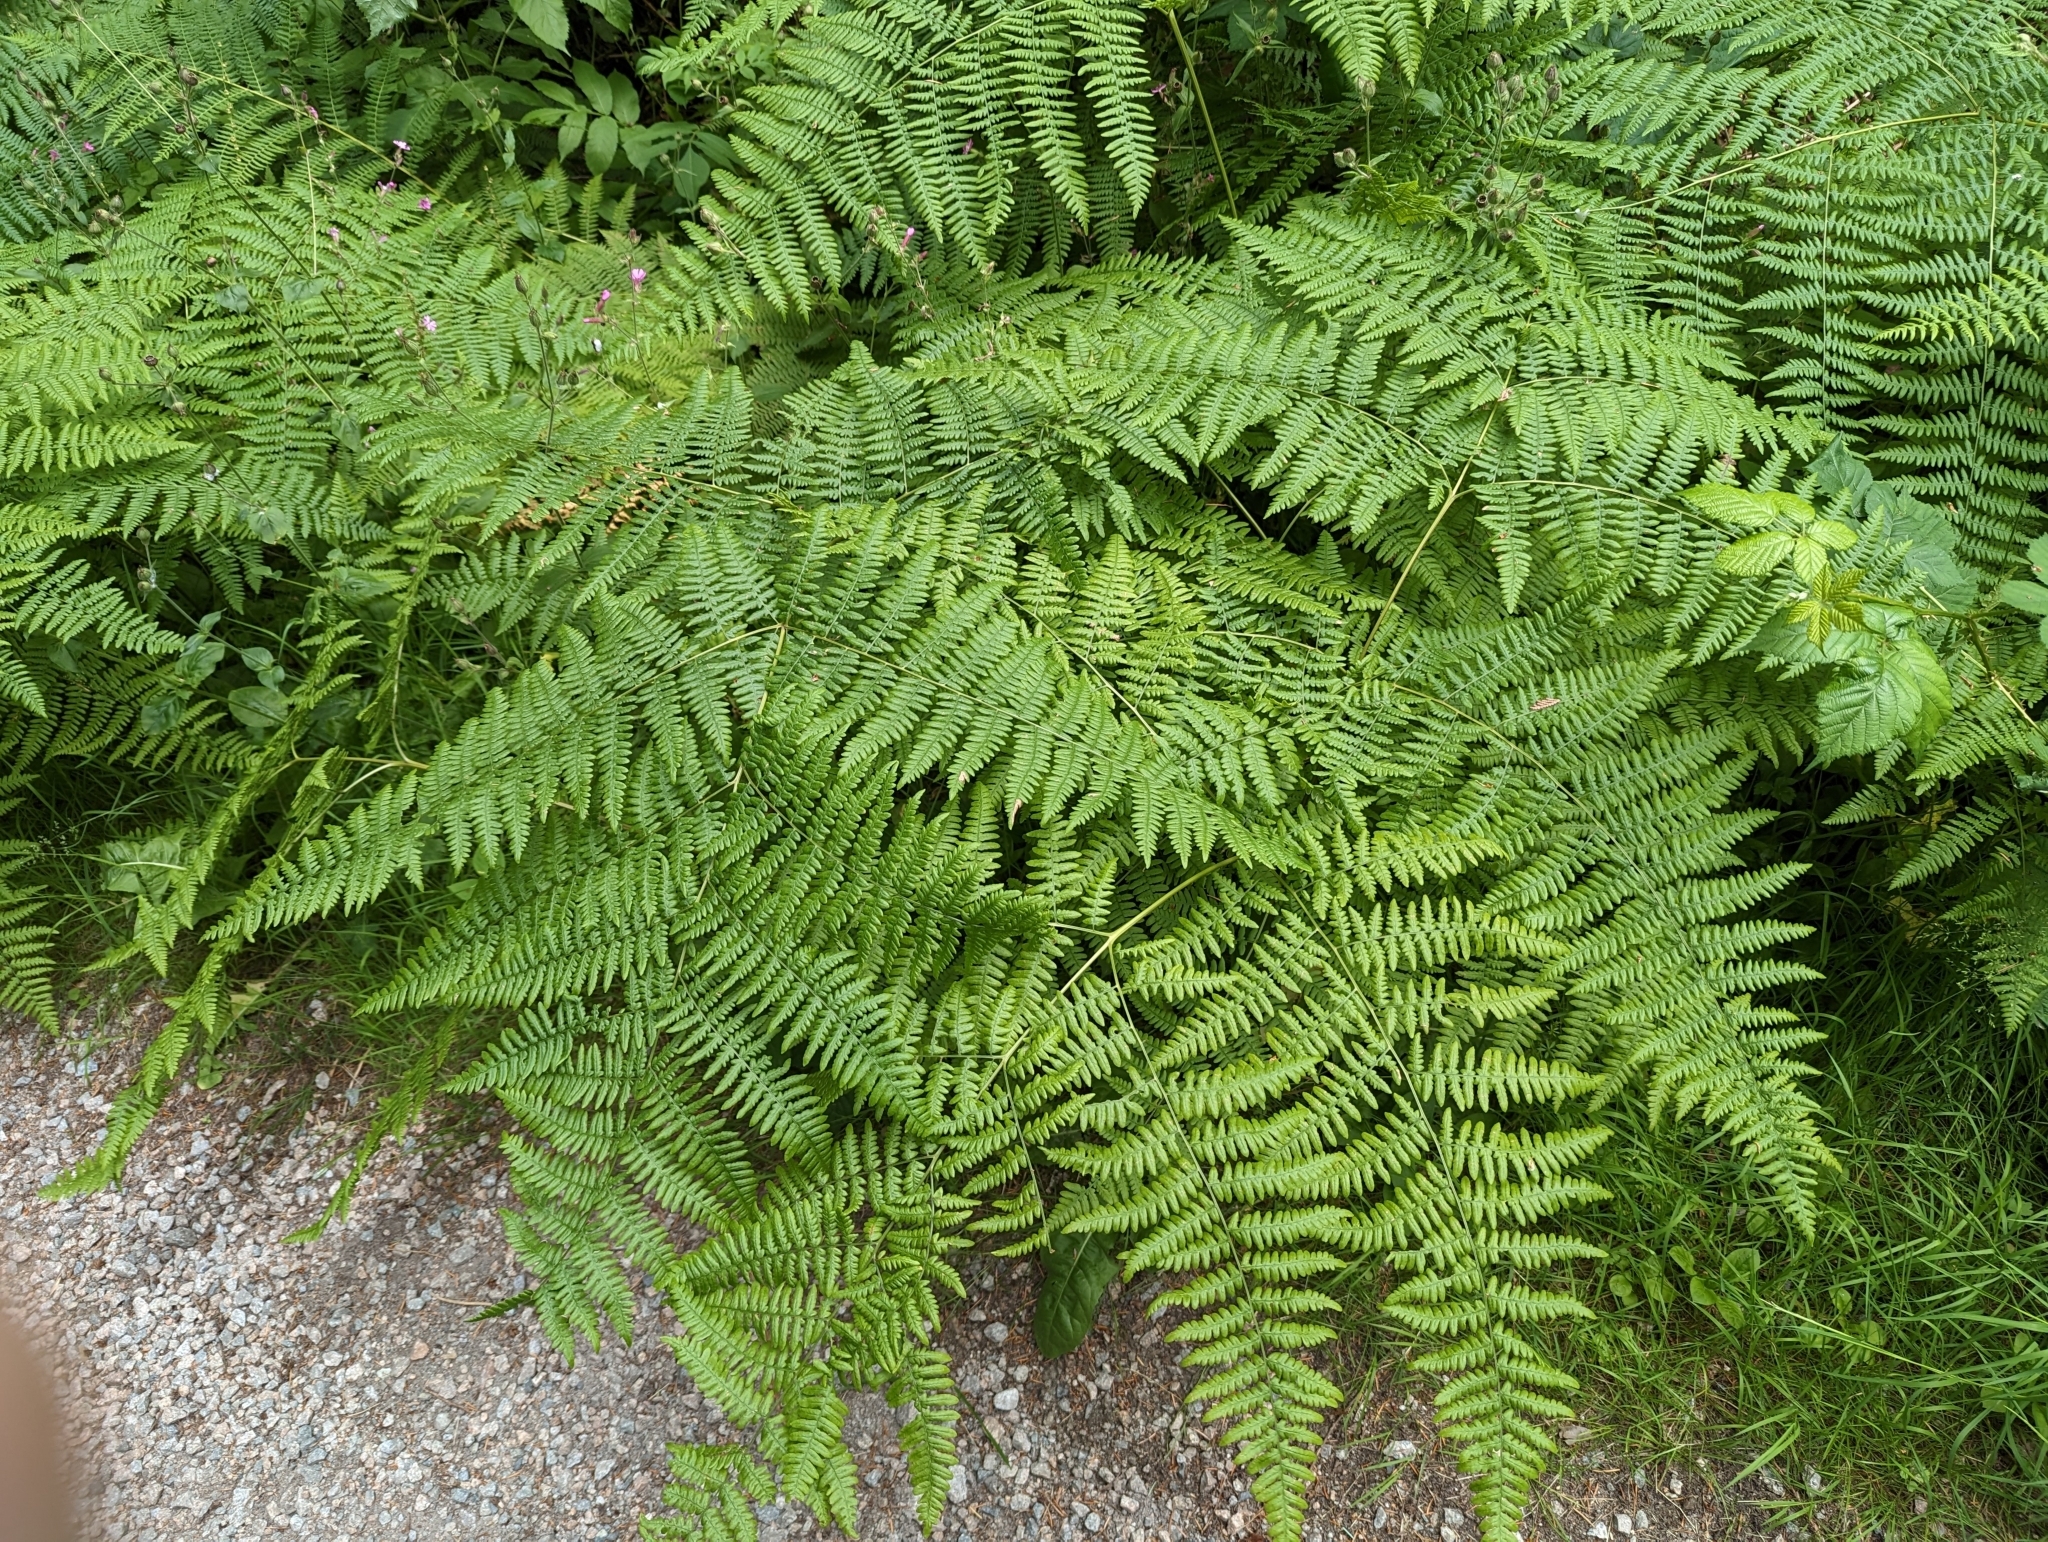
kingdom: Plantae
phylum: Tracheophyta
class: Polypodiopsida
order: Polypodiales
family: Dennstaedtiaceae
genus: Pteridium
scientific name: Pteridium aquilinum
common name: Bracken
